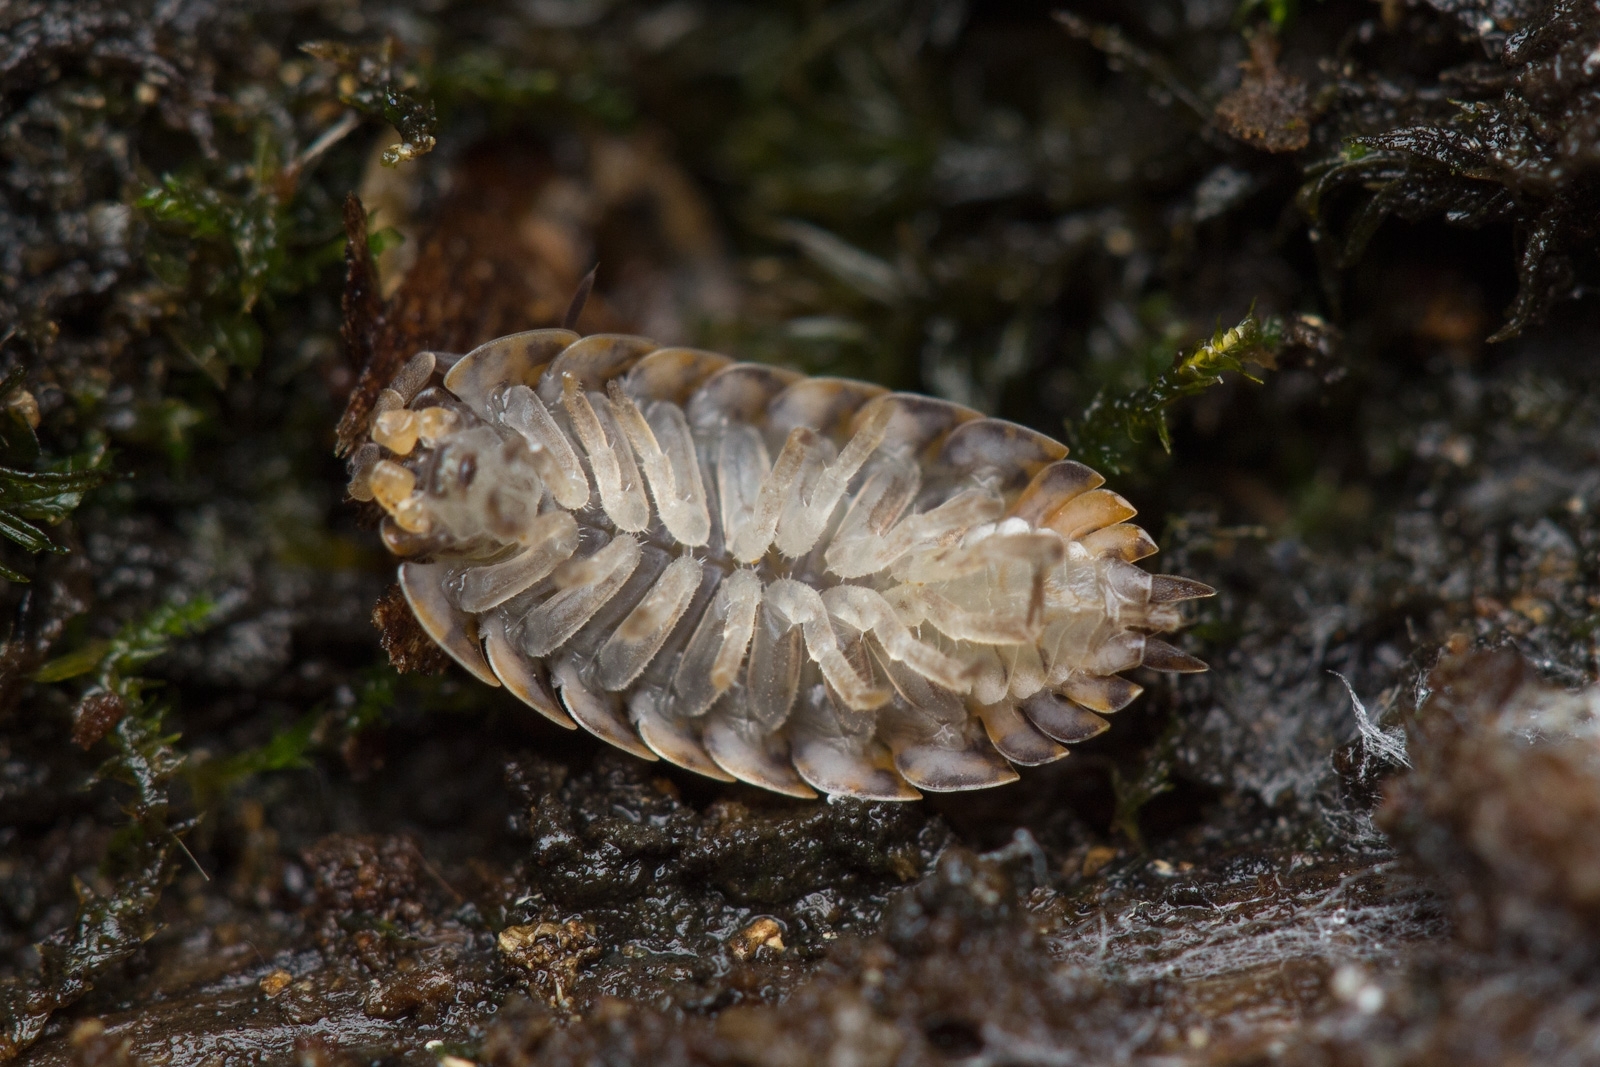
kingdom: Animalia
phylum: Arthropoda
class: Malacostraca
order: Isopoda
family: Trachelipodidae
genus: Trachelipus
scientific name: Trachelipus rathkii
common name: Isopod
